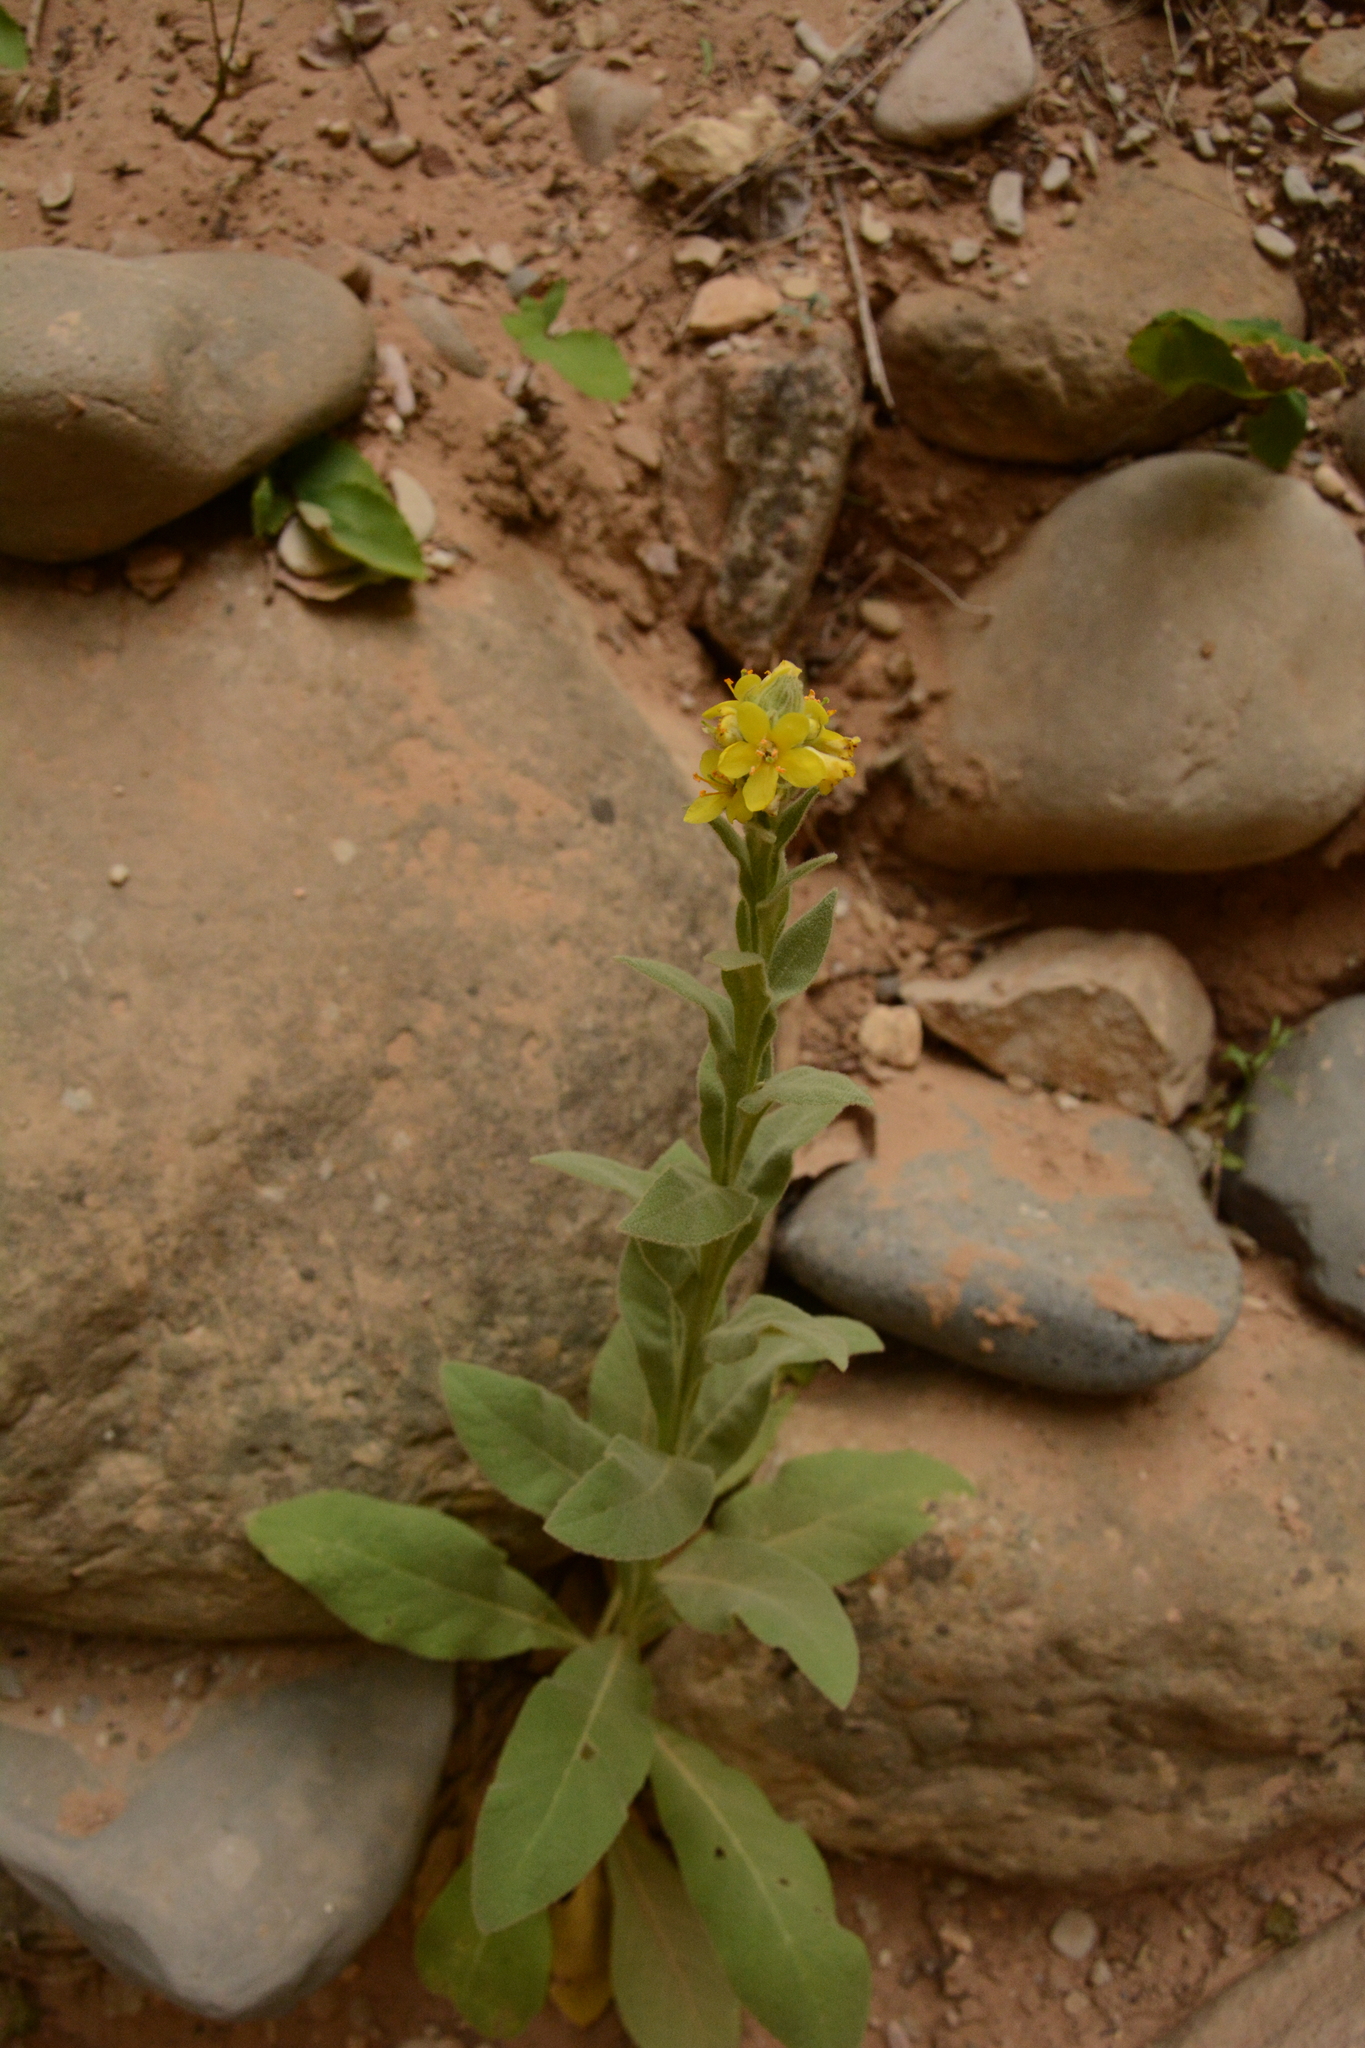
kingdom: Plantae
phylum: Tracheophyta
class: Magnoliopsida
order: Lamiales
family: Scrophulariaceae
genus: Verbascum
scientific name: Verbascum thapsus
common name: Common mullein
